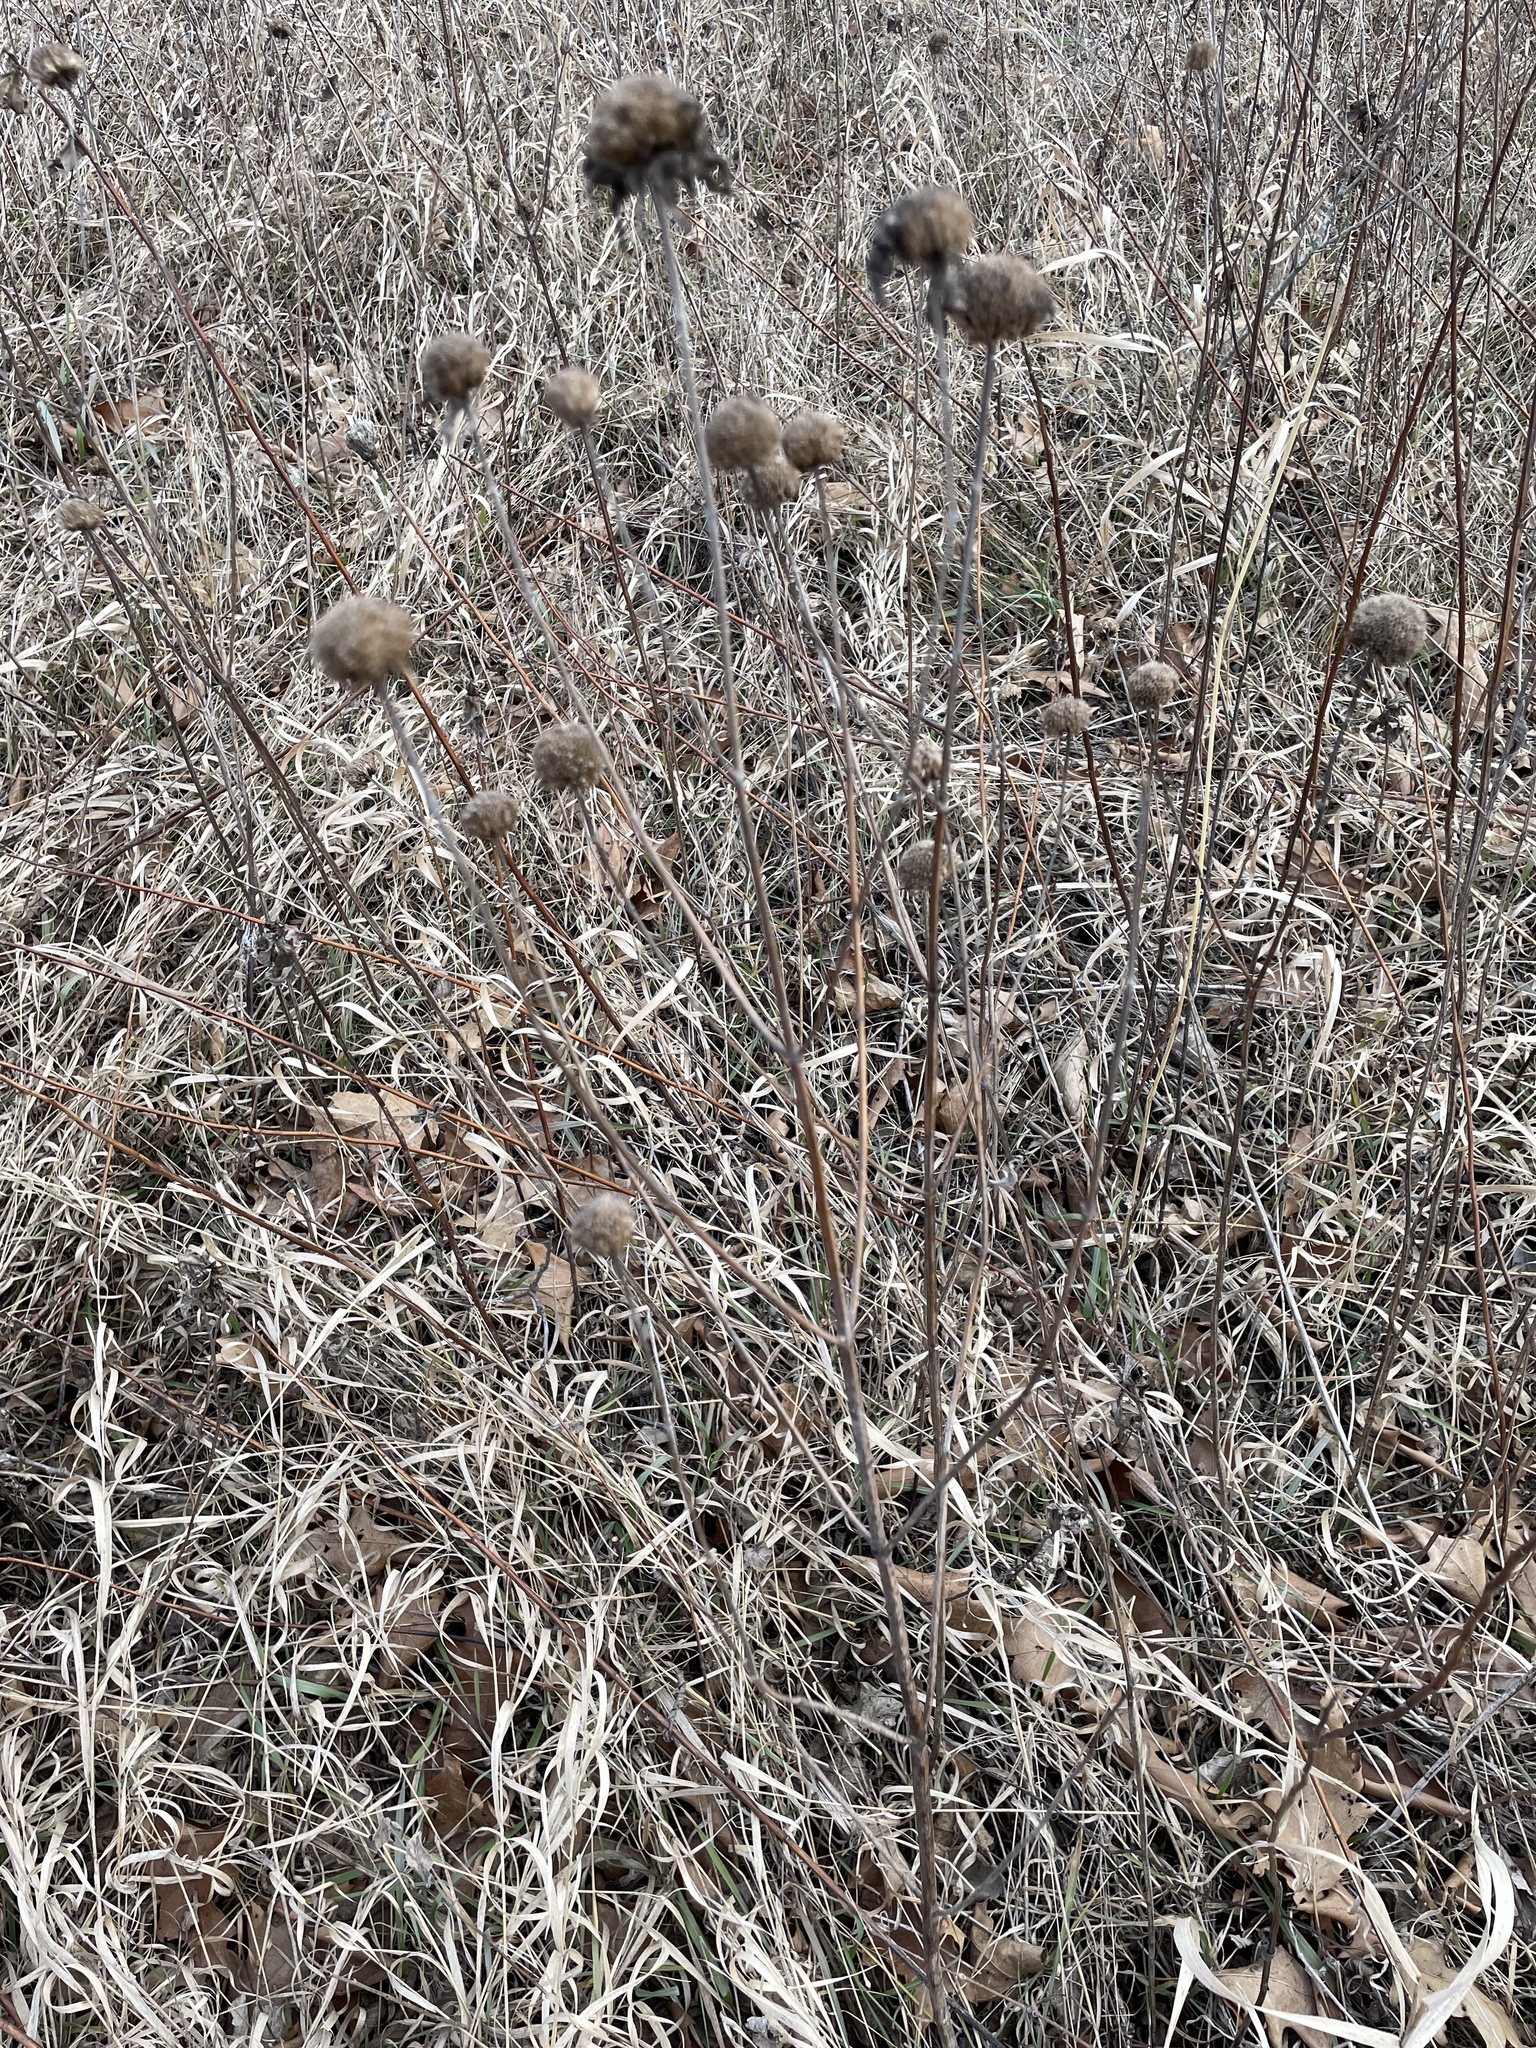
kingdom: Plantae
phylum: Tracheophyta
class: Magnoliopsida
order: Lamiales
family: Lamiaceae
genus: Monarda
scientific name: Monarda fistulosa
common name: Purple beebalm
